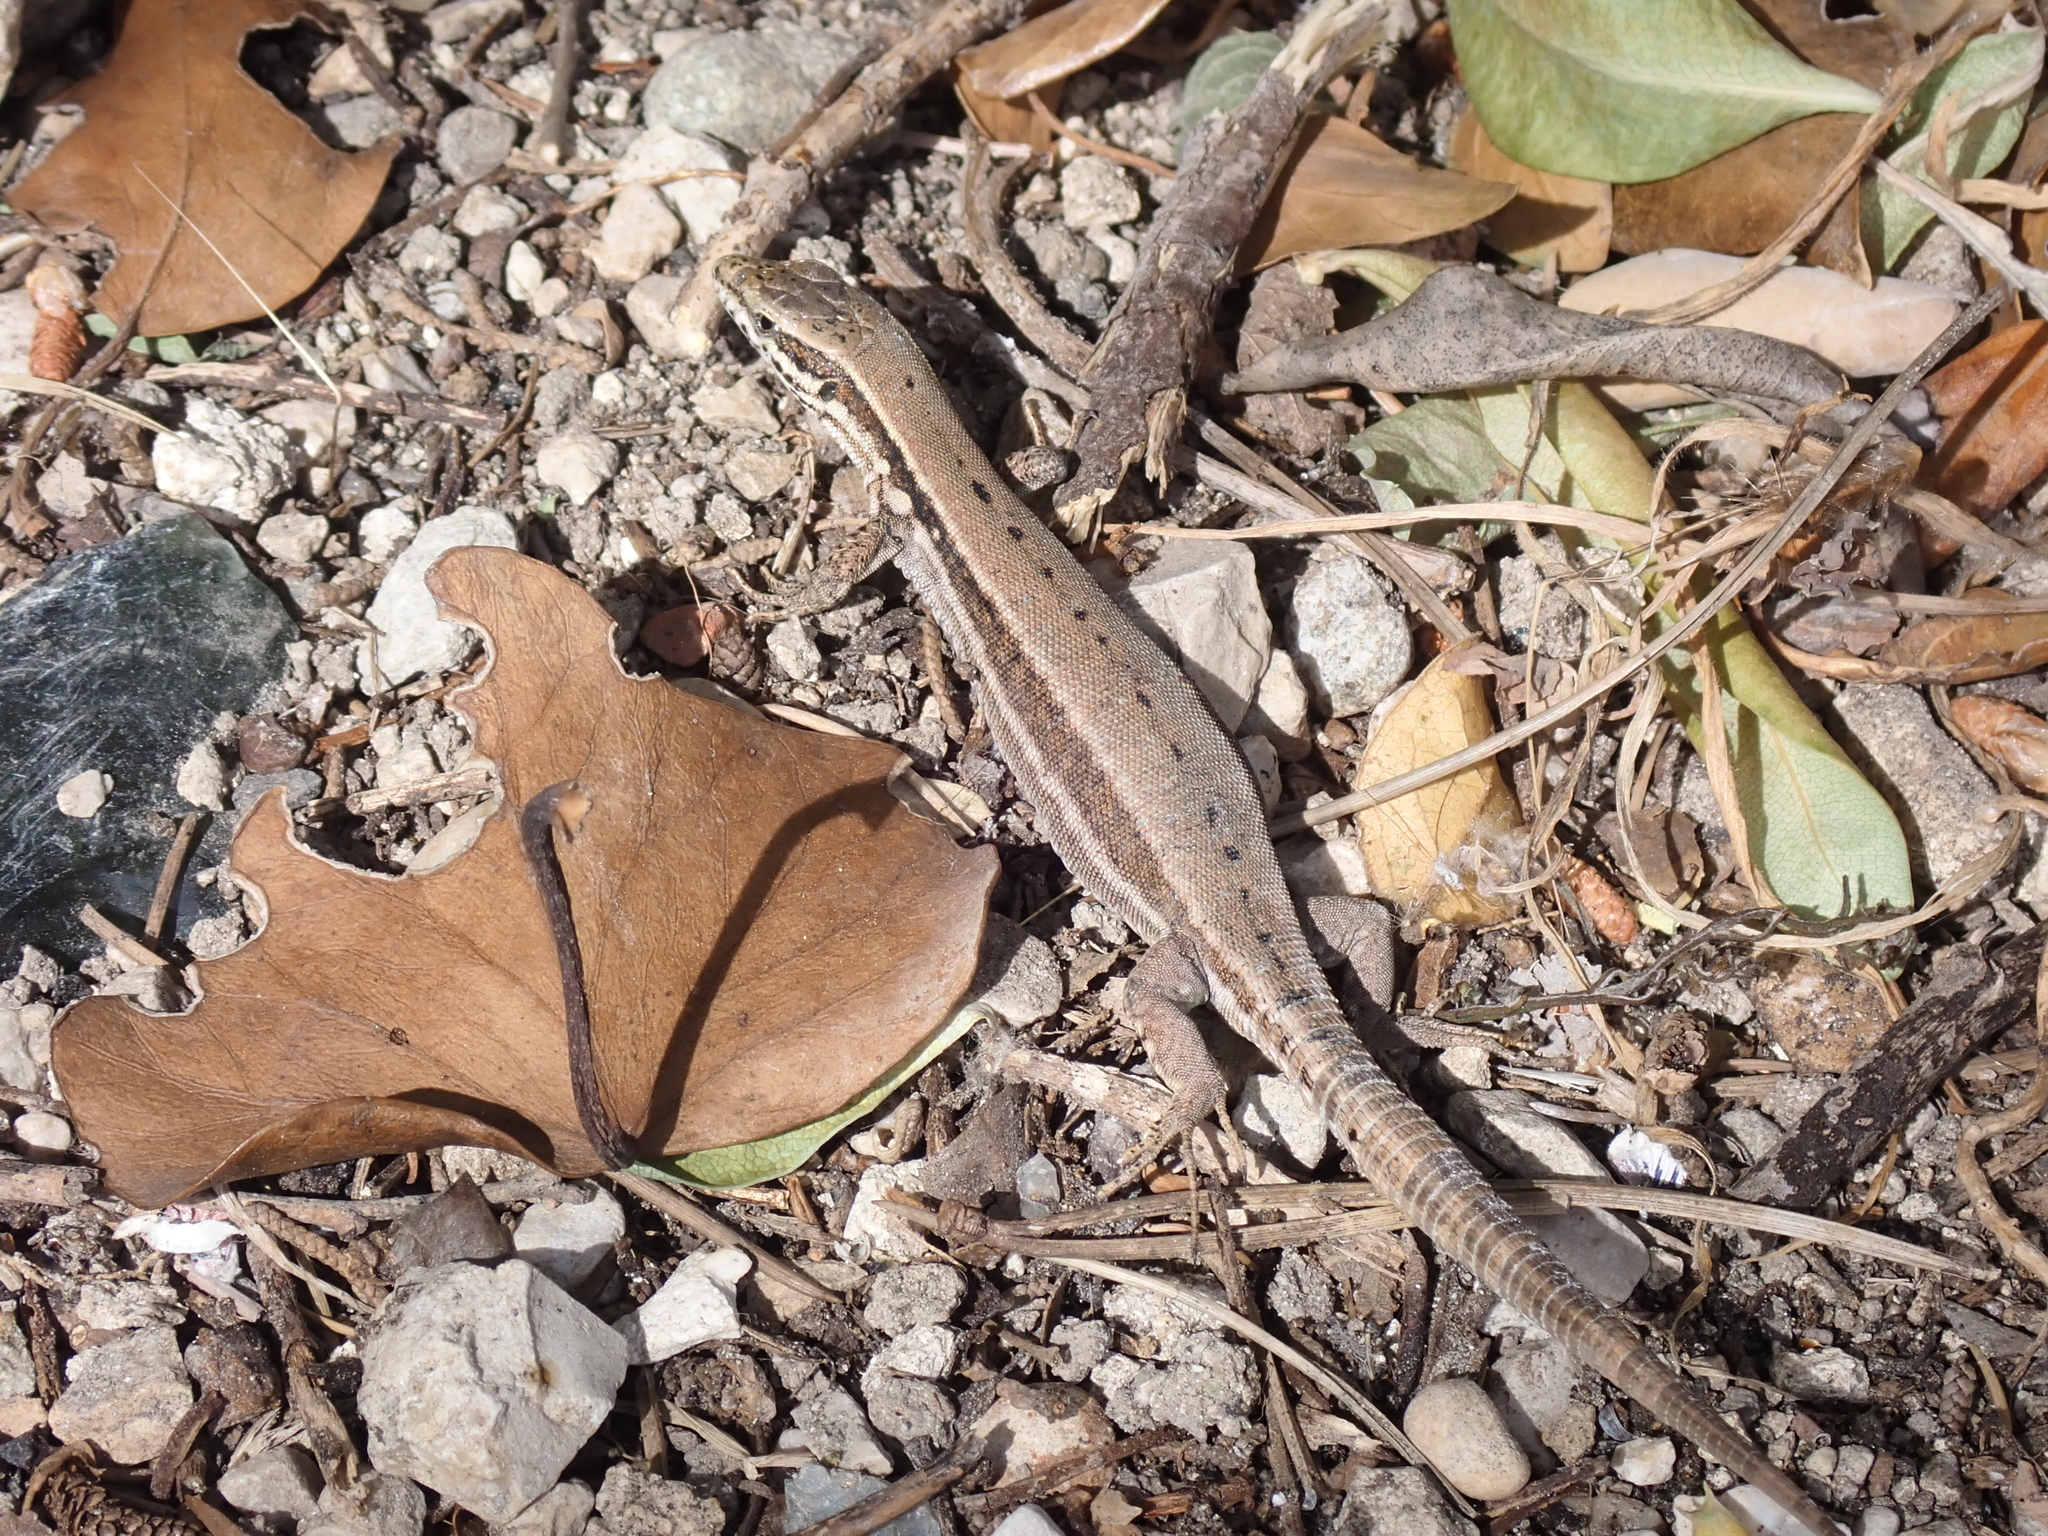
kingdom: Animalia
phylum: Chordata
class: Squamata
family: Lacertidae
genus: Podarcis
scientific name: Podarcis muralis
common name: Common wall lizard
